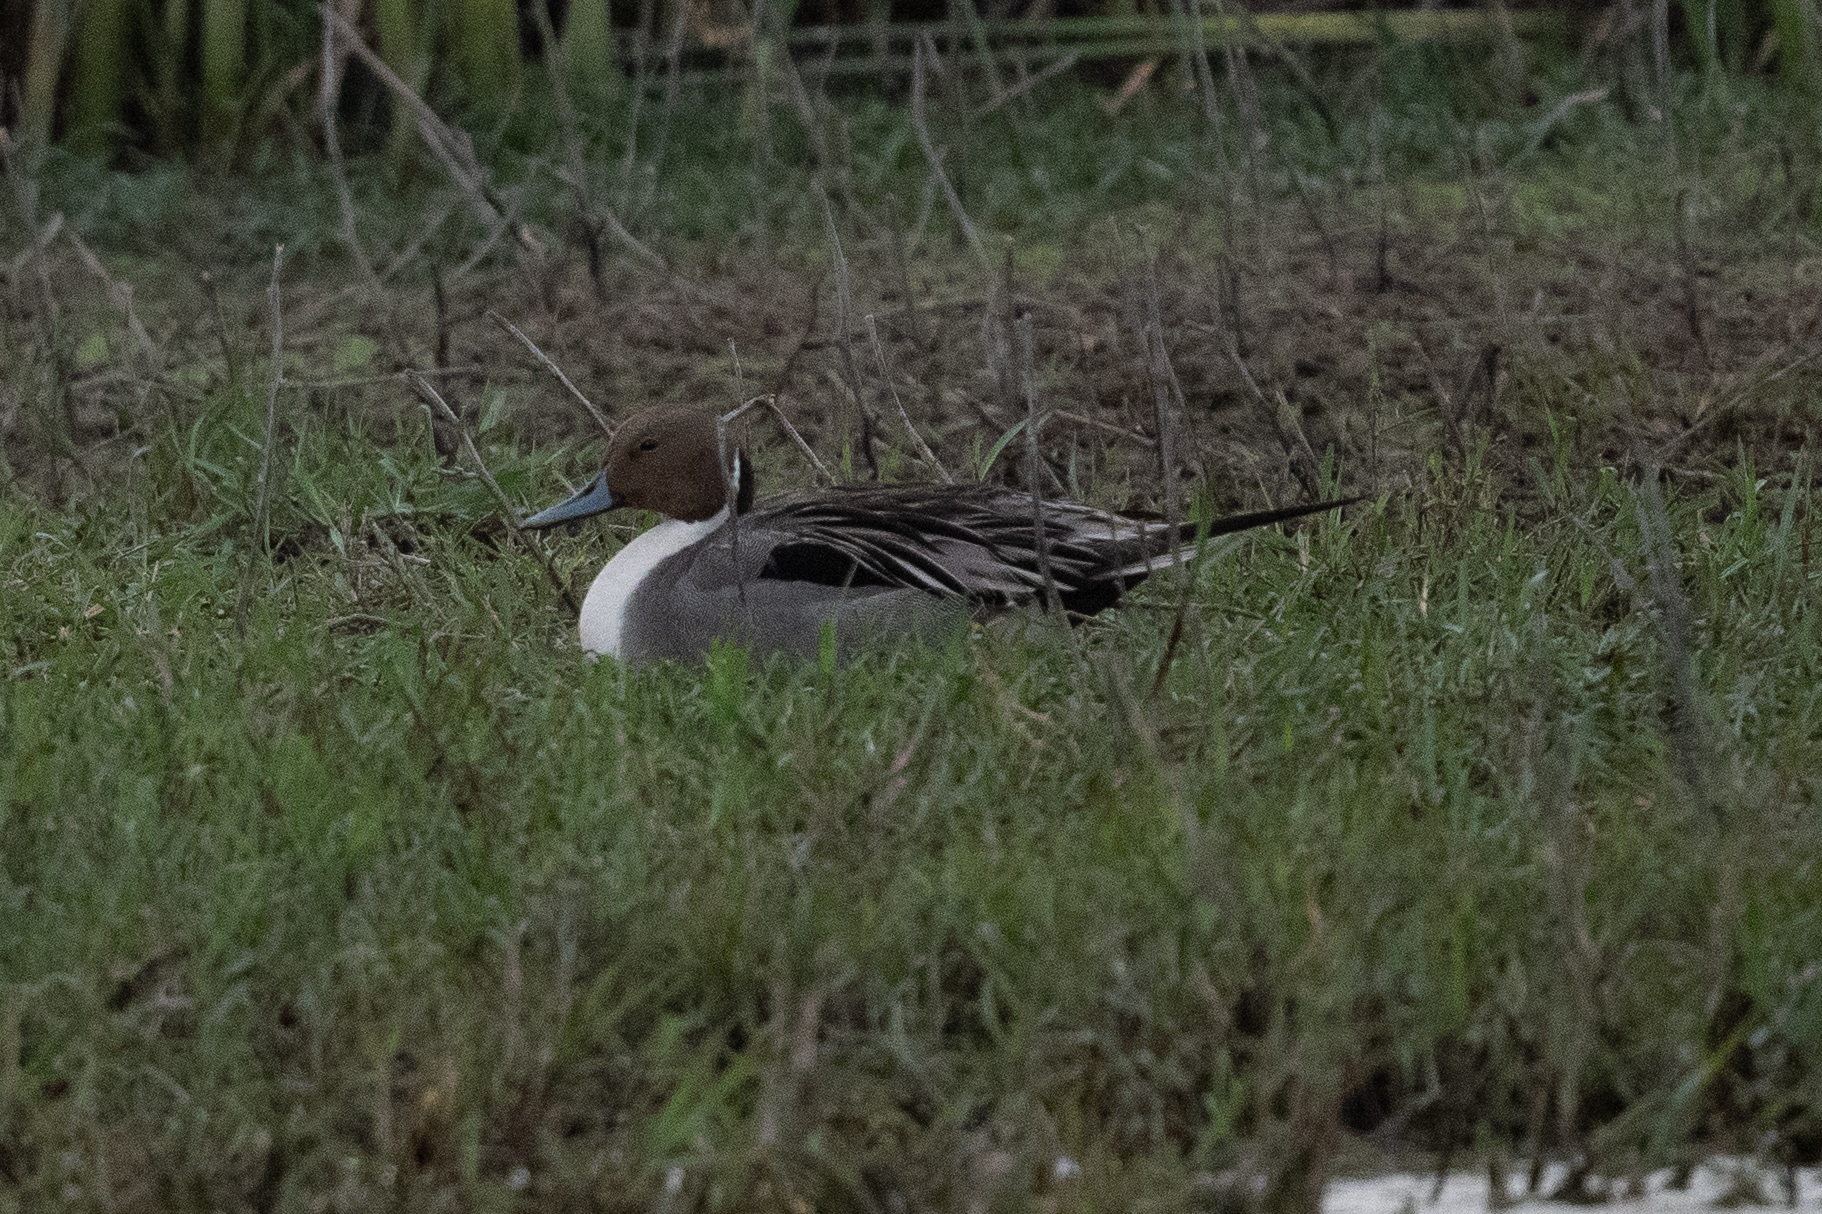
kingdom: Animalia
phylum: Chordata
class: Aves
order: Anseriformes
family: Anatidae
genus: Anas
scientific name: Anas acuta
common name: Northern pintail
